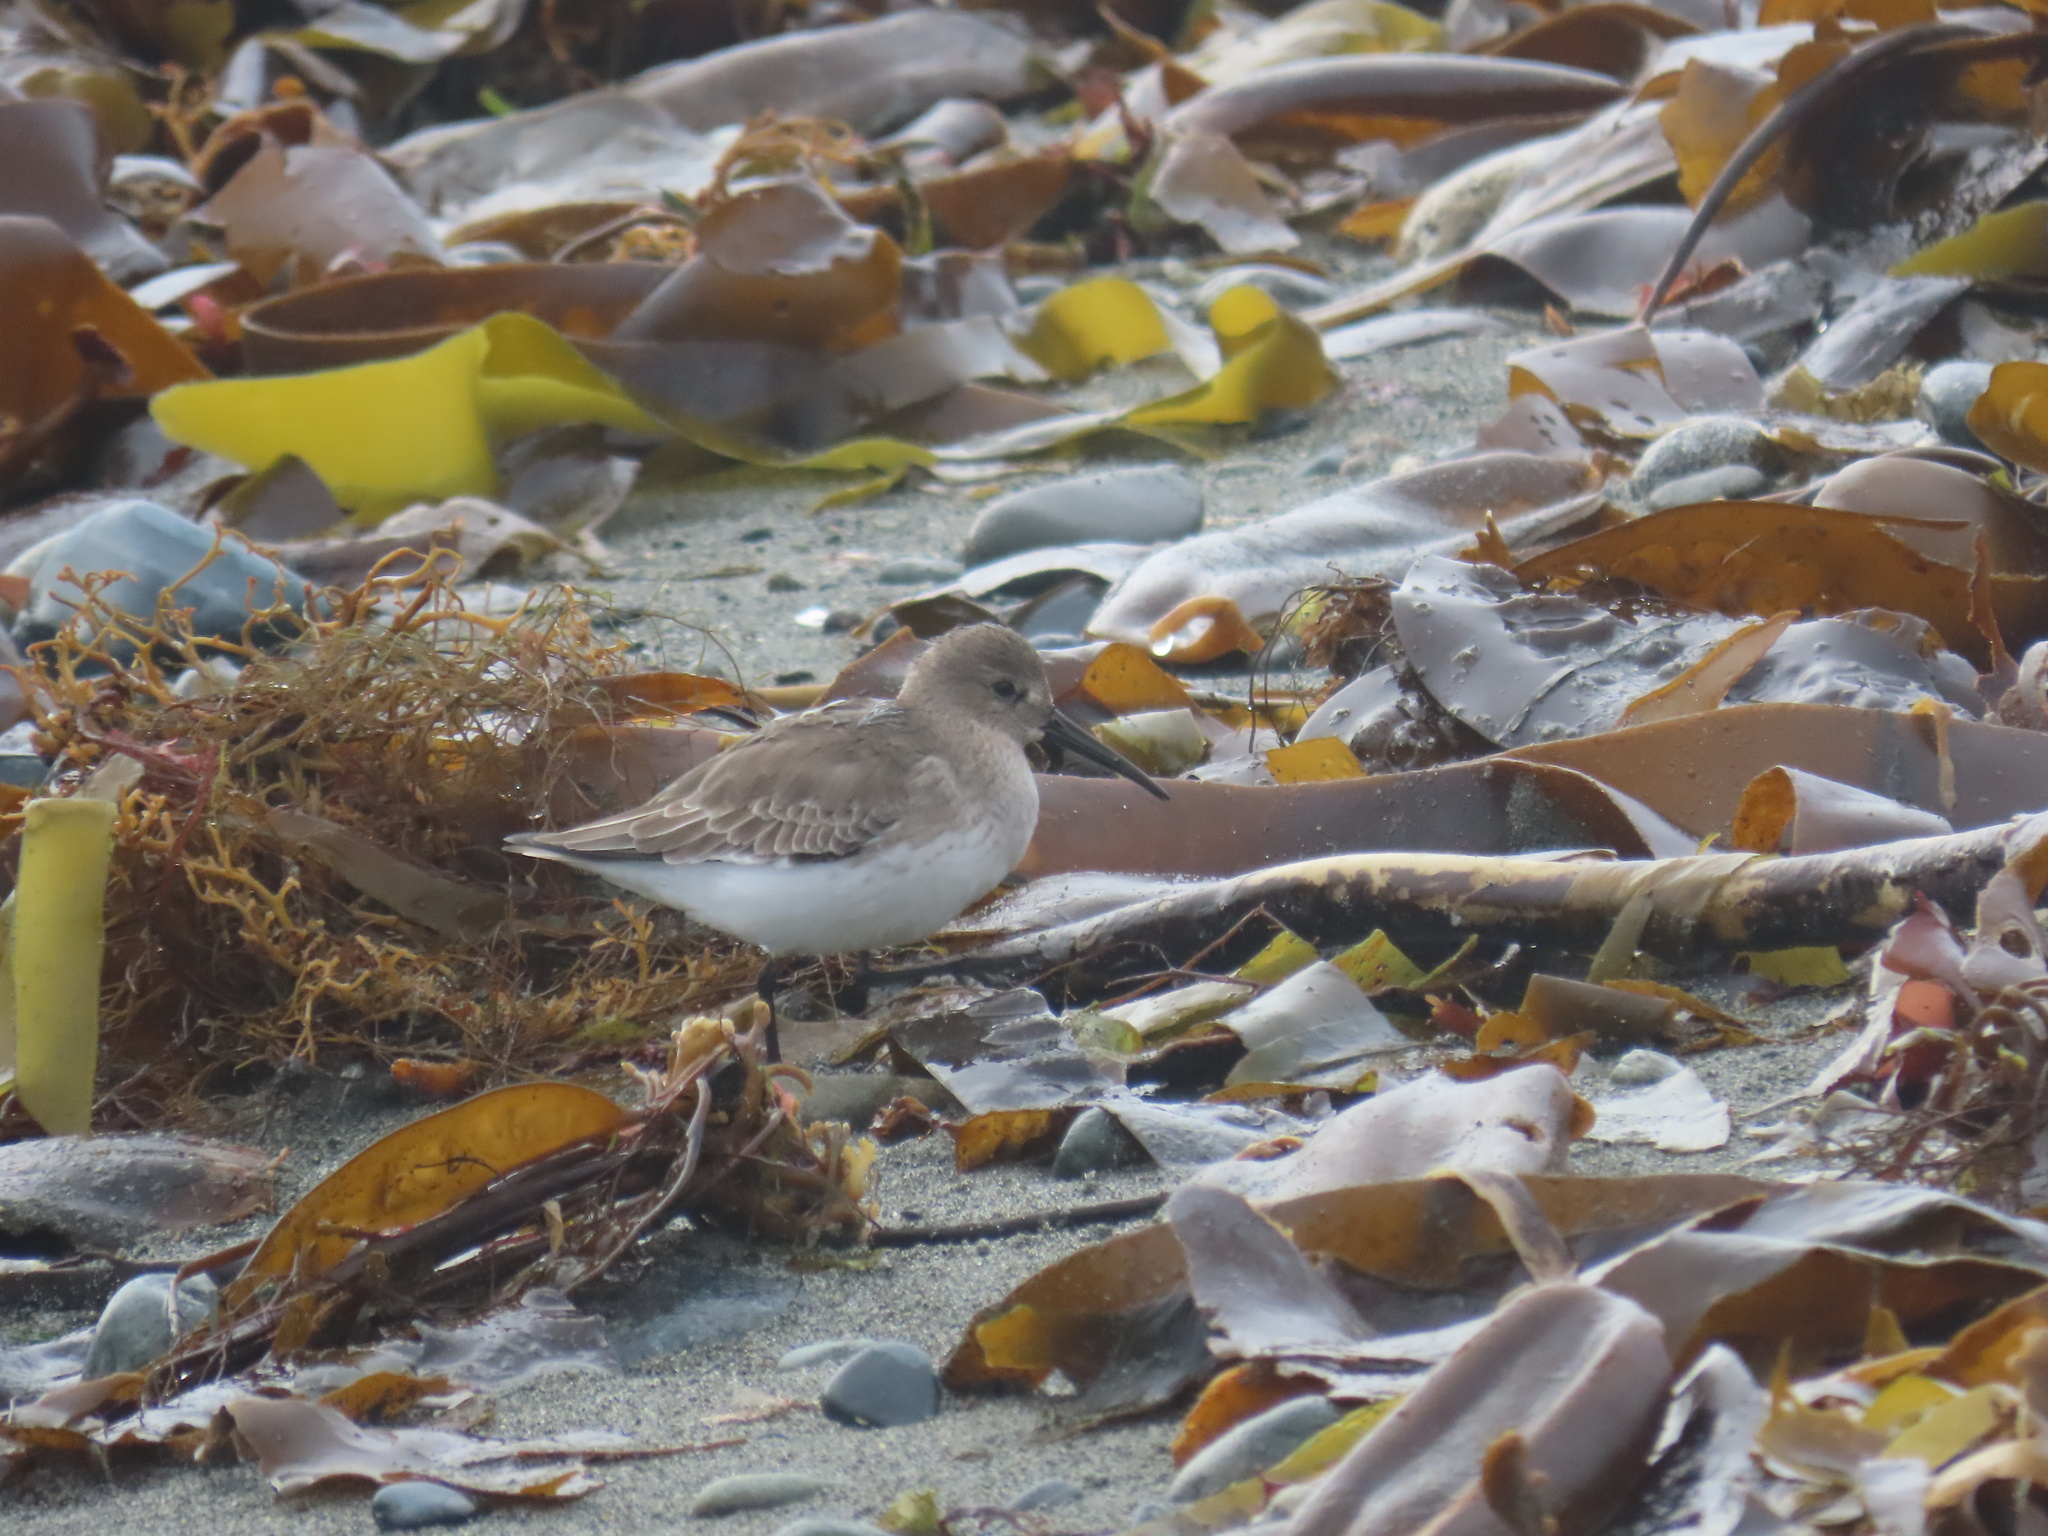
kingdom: Animalia
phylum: Chordata
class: Aves
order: Charadriiformes
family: Scolopacidae
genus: Calidris
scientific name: Calidris alpina
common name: Dunlin
